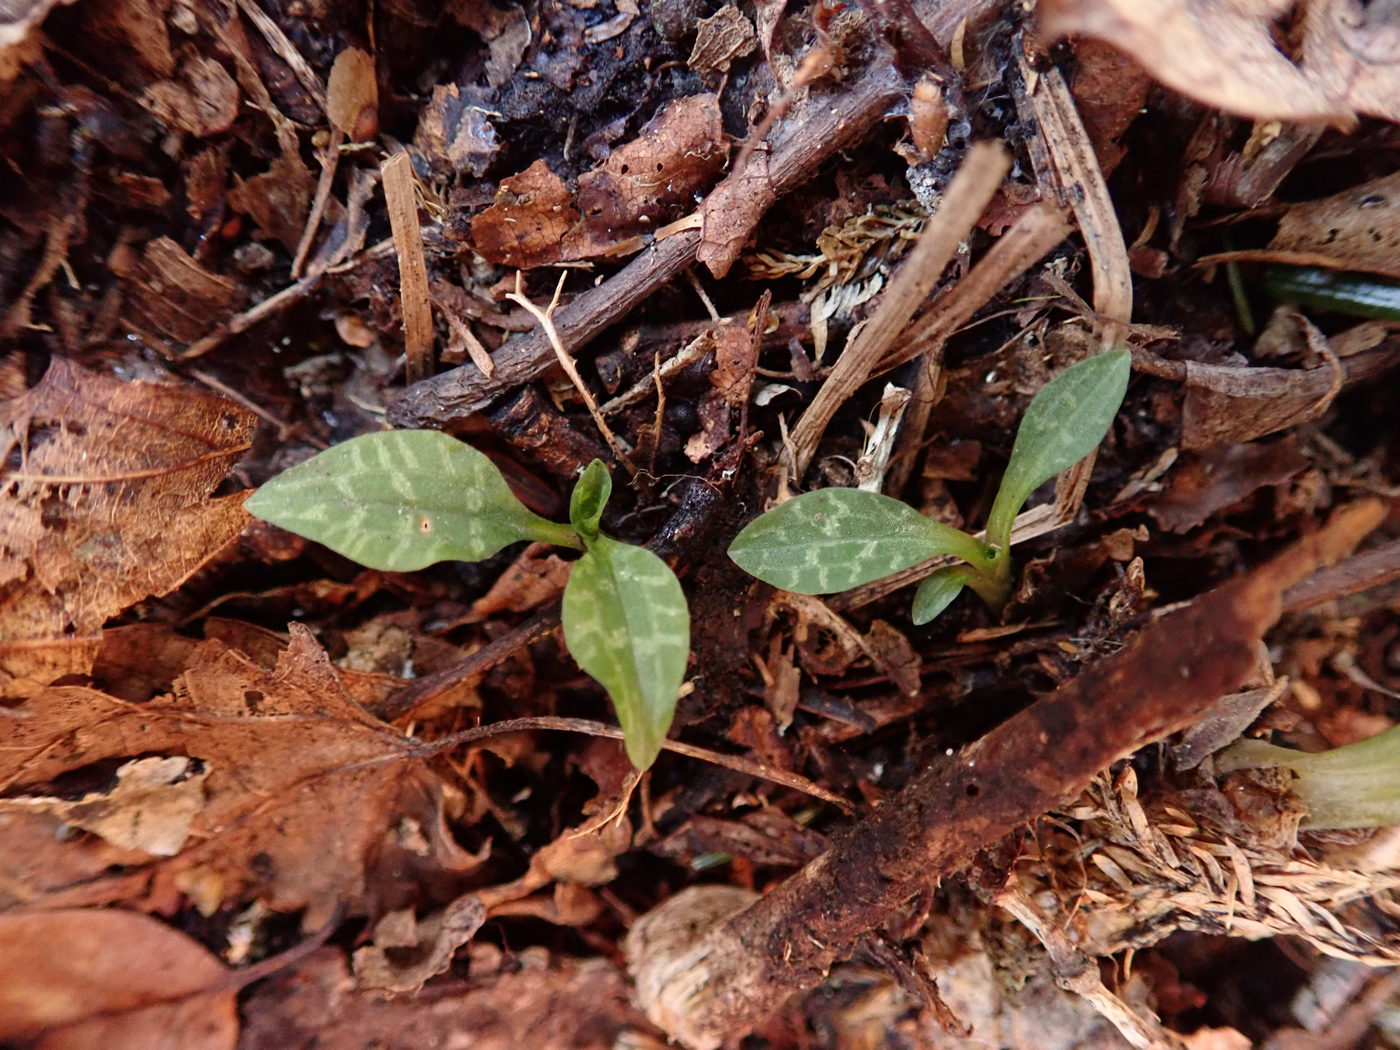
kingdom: Plantae
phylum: Tracheophyta
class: Liliopsida
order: Asparagales
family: Orchidaceae
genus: Goodyera
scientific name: Goodyera repens
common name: Creeping lady's-tresses
